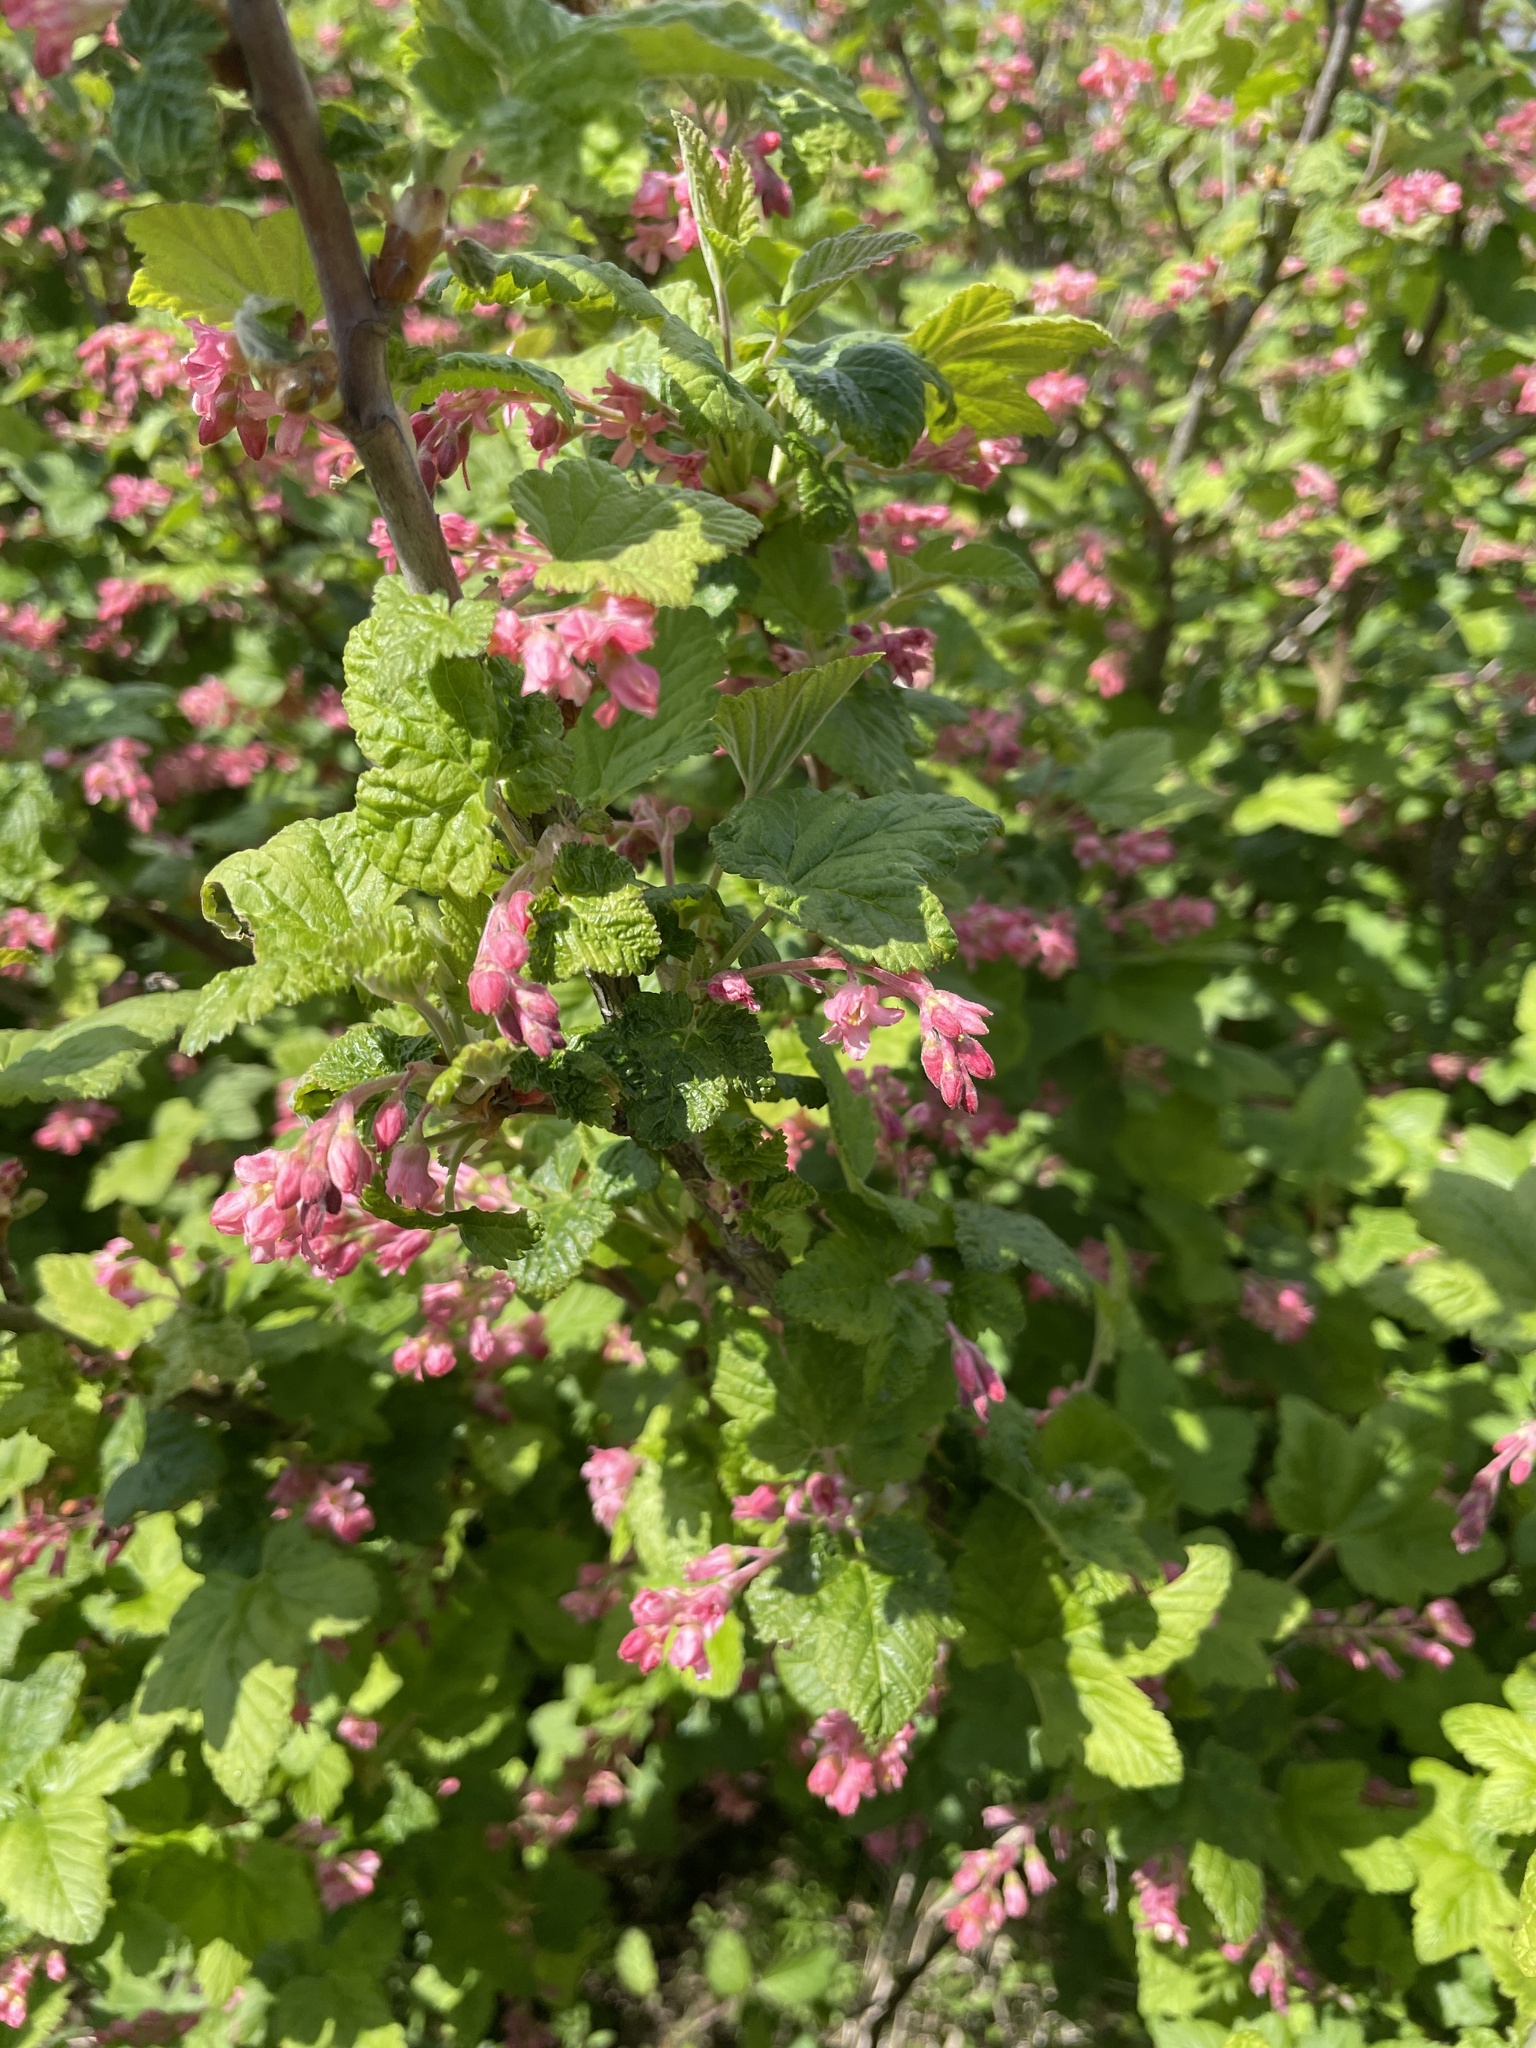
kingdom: Plantae
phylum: Tracheophyta
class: Magnoliopsida
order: Saxifragales
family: Grossulariaceae
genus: Ribes
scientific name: Ribes sanguineum
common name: Flowering currant
